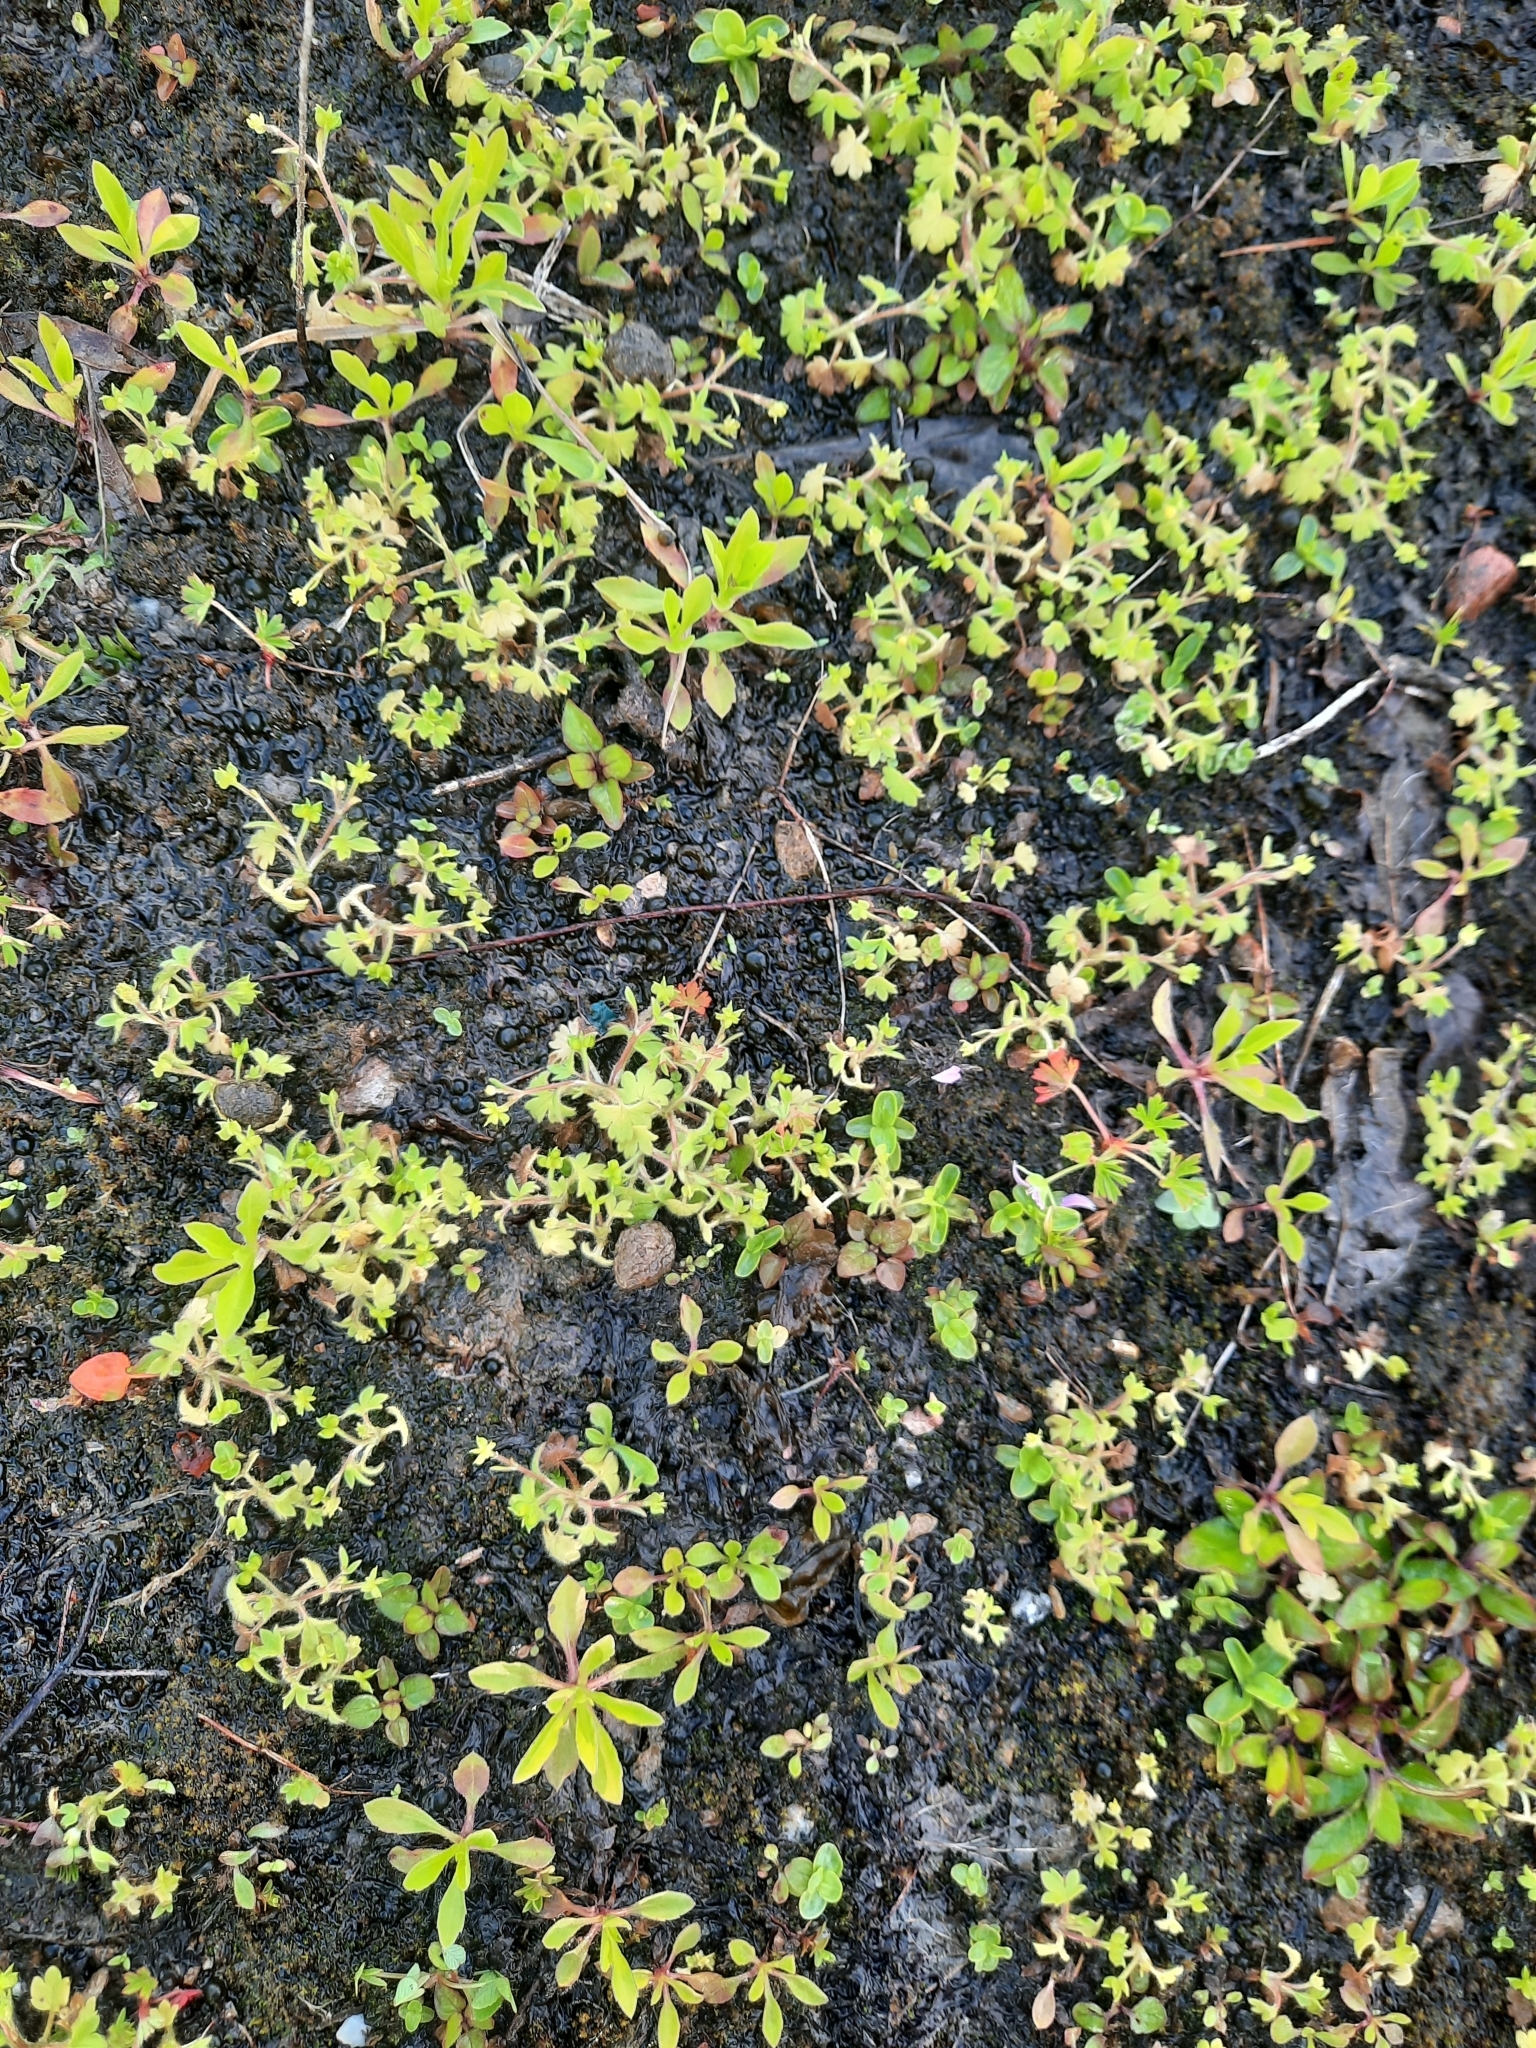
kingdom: Plantae
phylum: Tracheophyta
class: Magnoliopsida
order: Ranunculales
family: Ranunculaceae
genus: Ranunculus
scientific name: Ranunculus parviflorus
